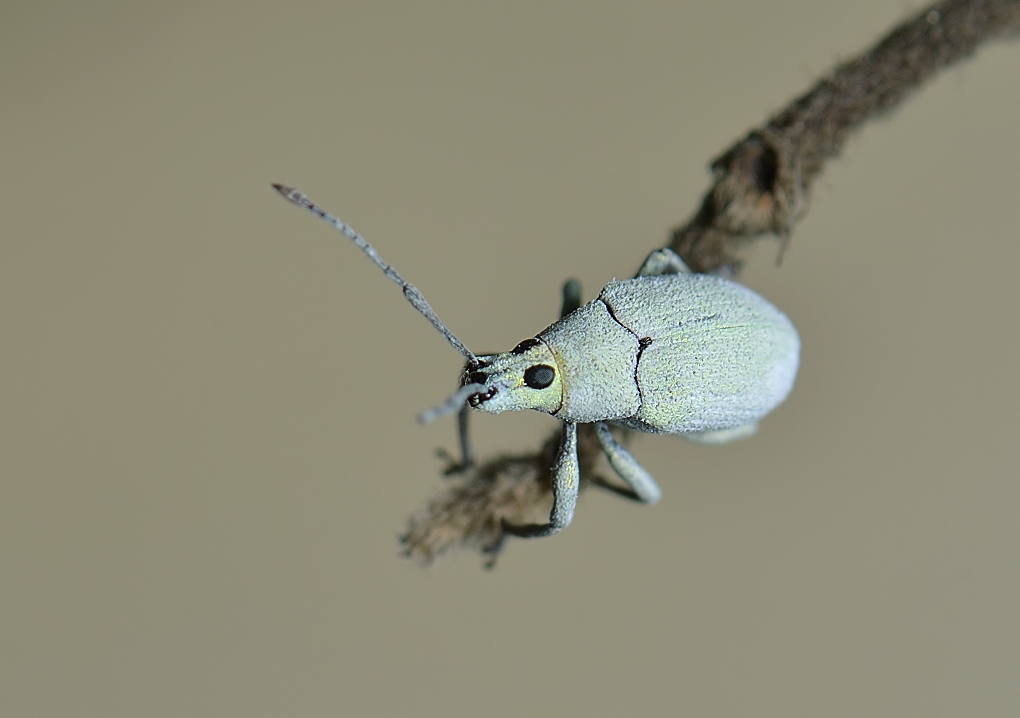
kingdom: Animalia
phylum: Arthropoda
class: Insecta
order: Coleoptera
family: Curculionidae
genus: Myllocerus
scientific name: Myllocerus paetus
